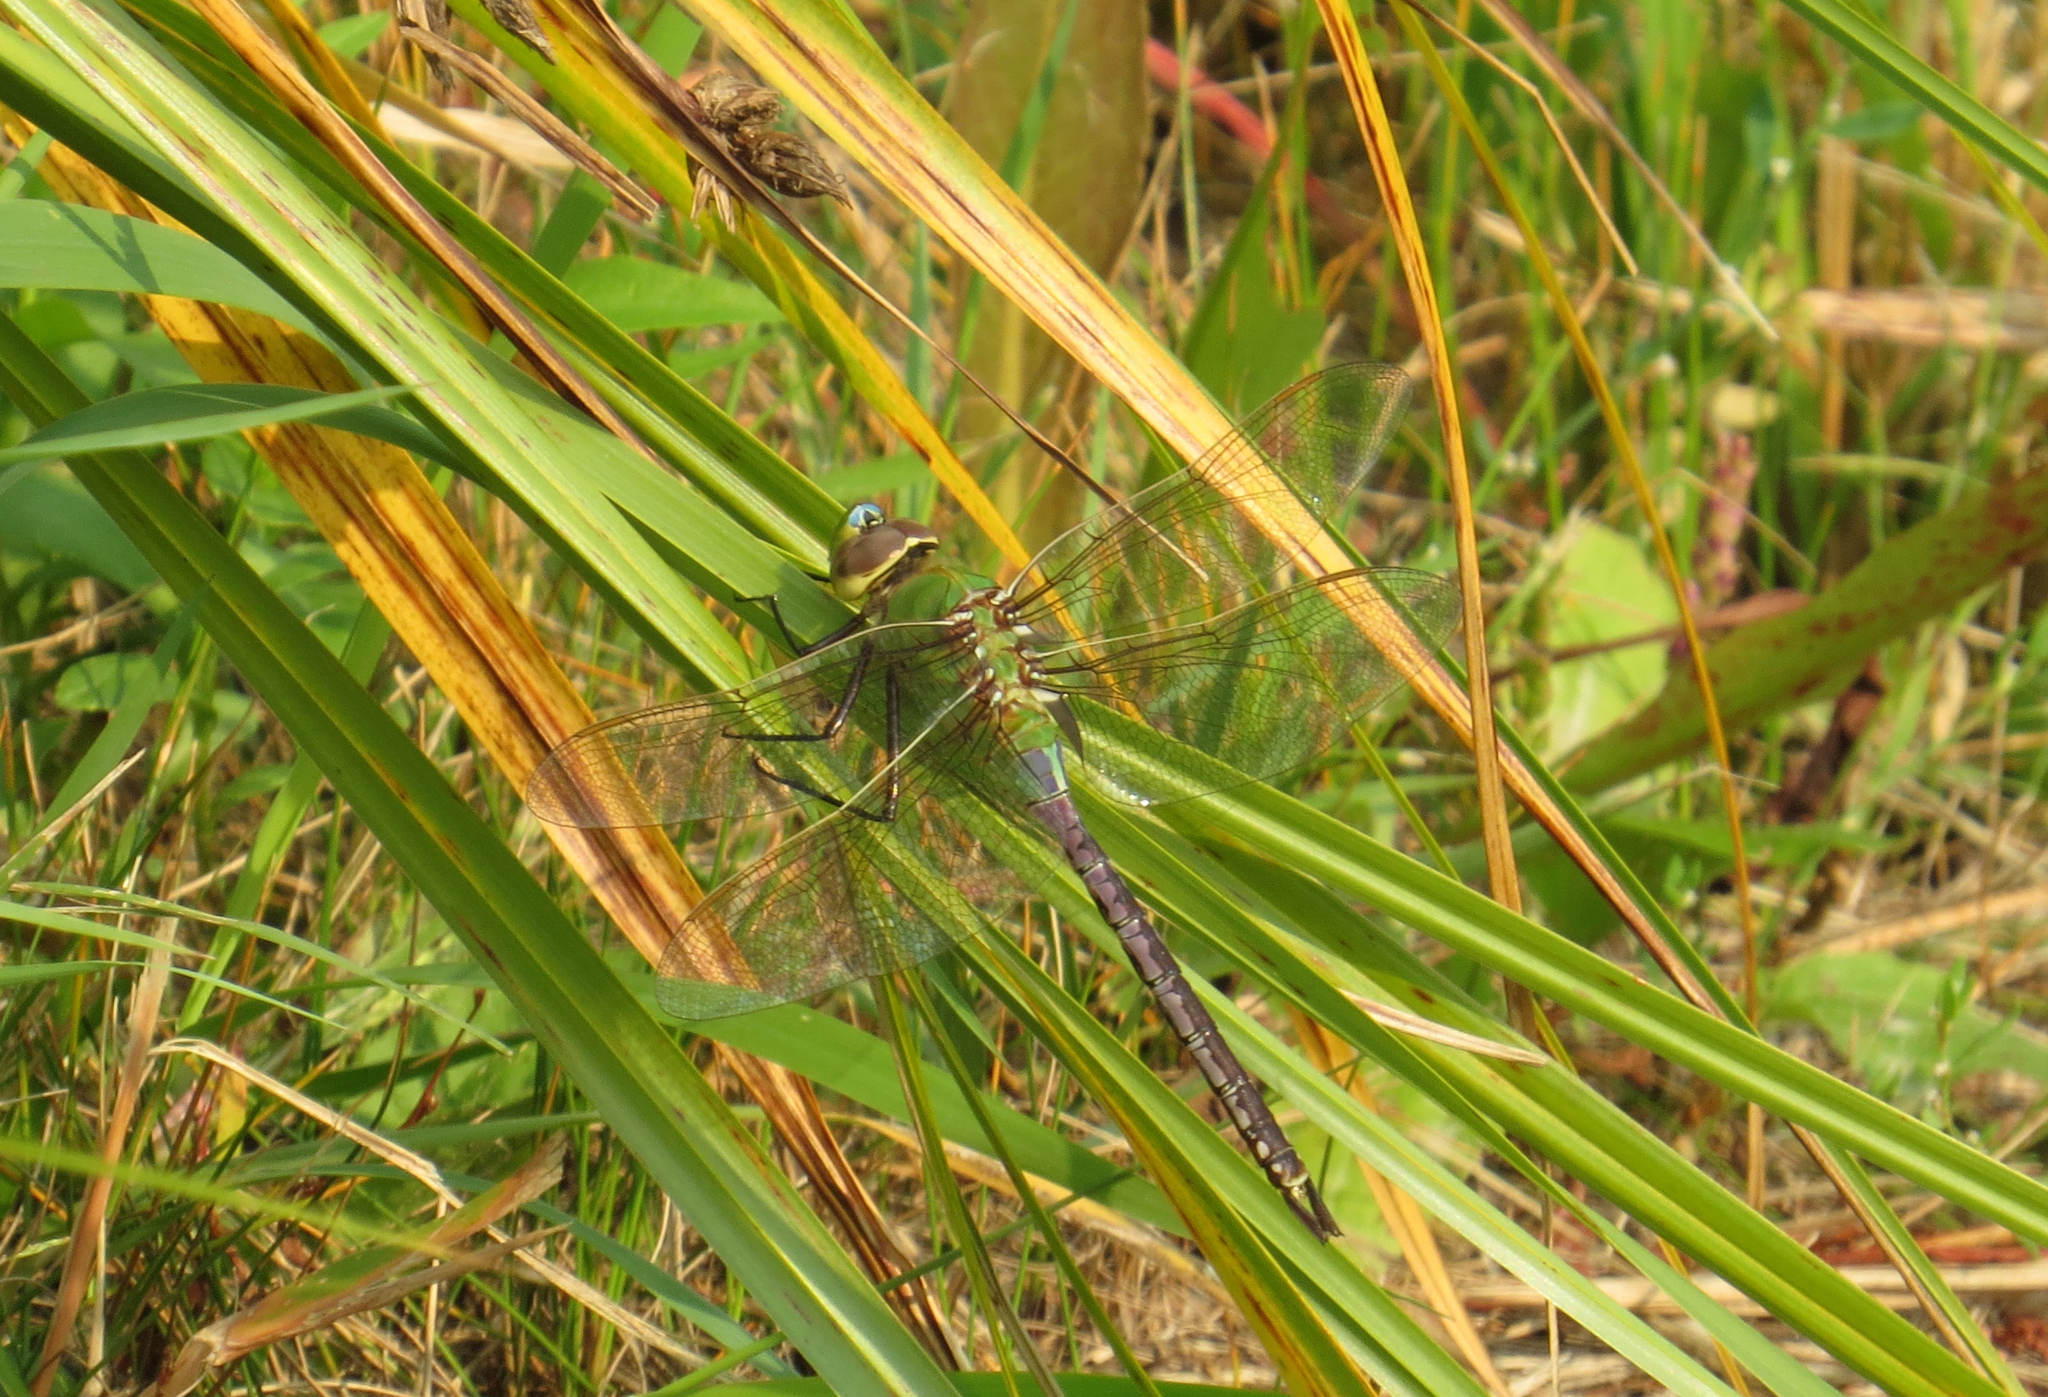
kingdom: Animalia
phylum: Arthropoda
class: Insecta
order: Odonata
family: Aeshnidae
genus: Anax
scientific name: Anax junius
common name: Common green darner
